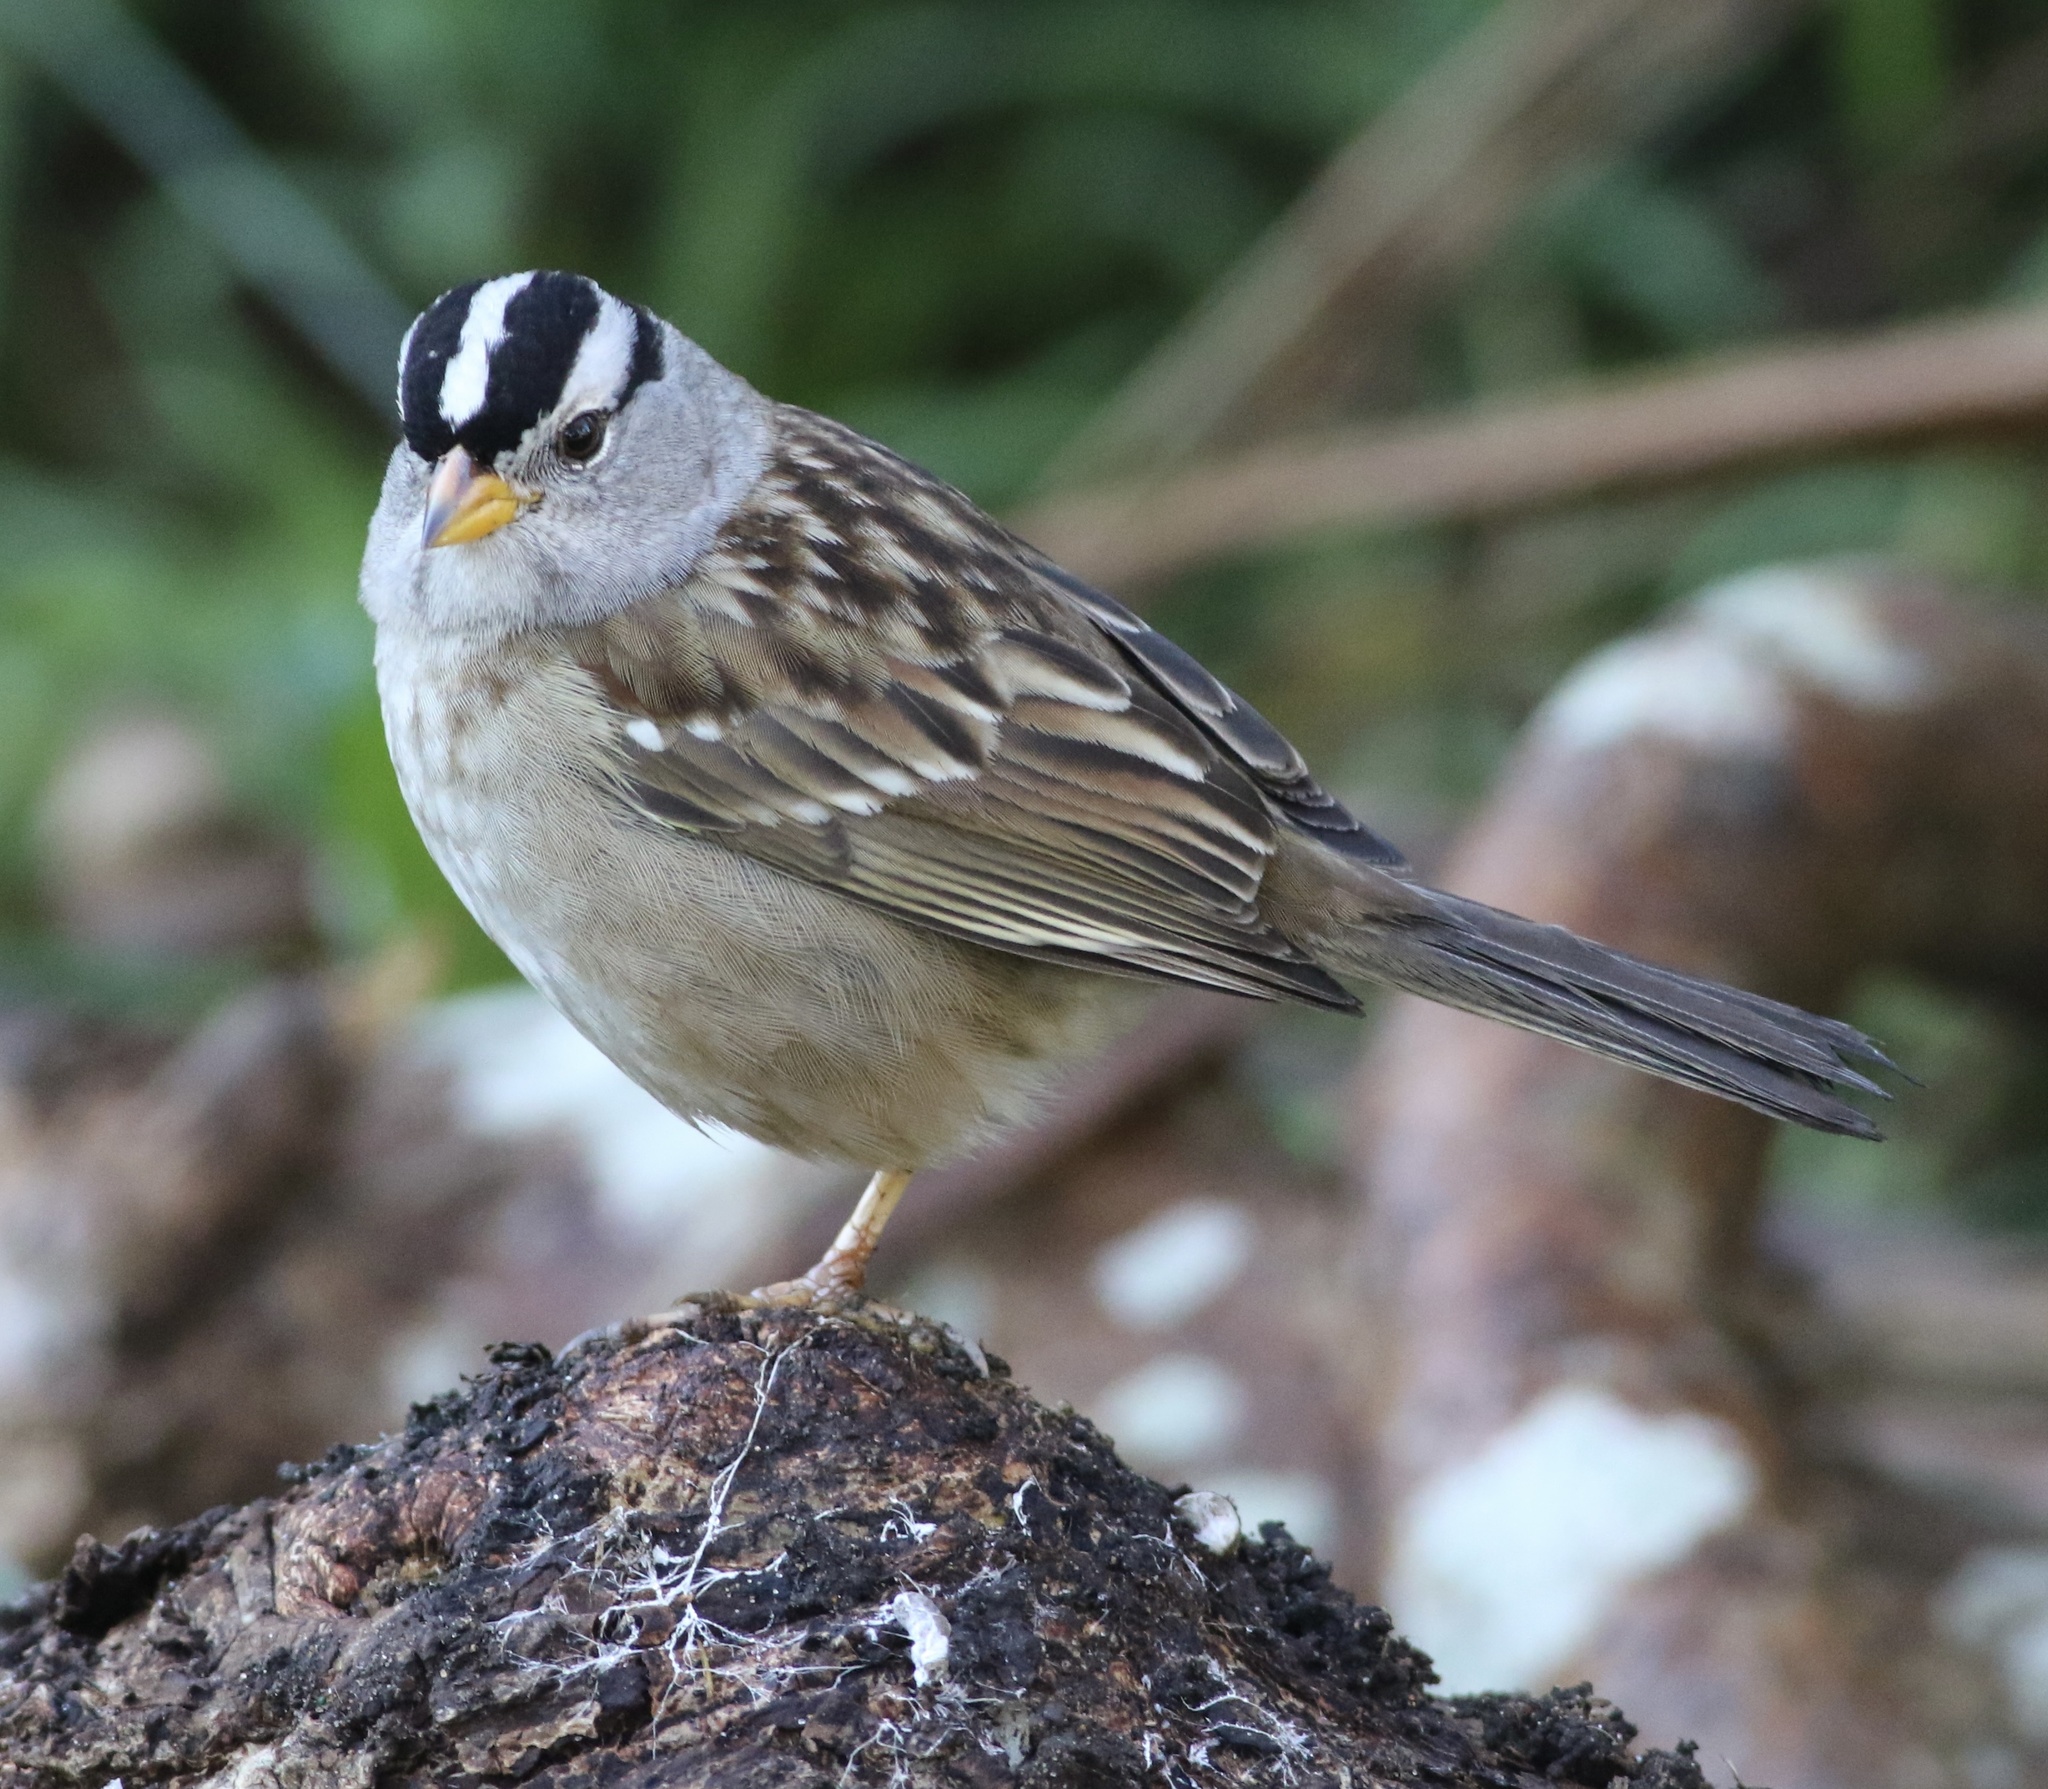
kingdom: Animalia
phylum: Chordata
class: Aves
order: Passeriformes
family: Passerellidae
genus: Zonotrichia
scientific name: Zonotrichia leucophrys
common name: White-crowned sparrow
